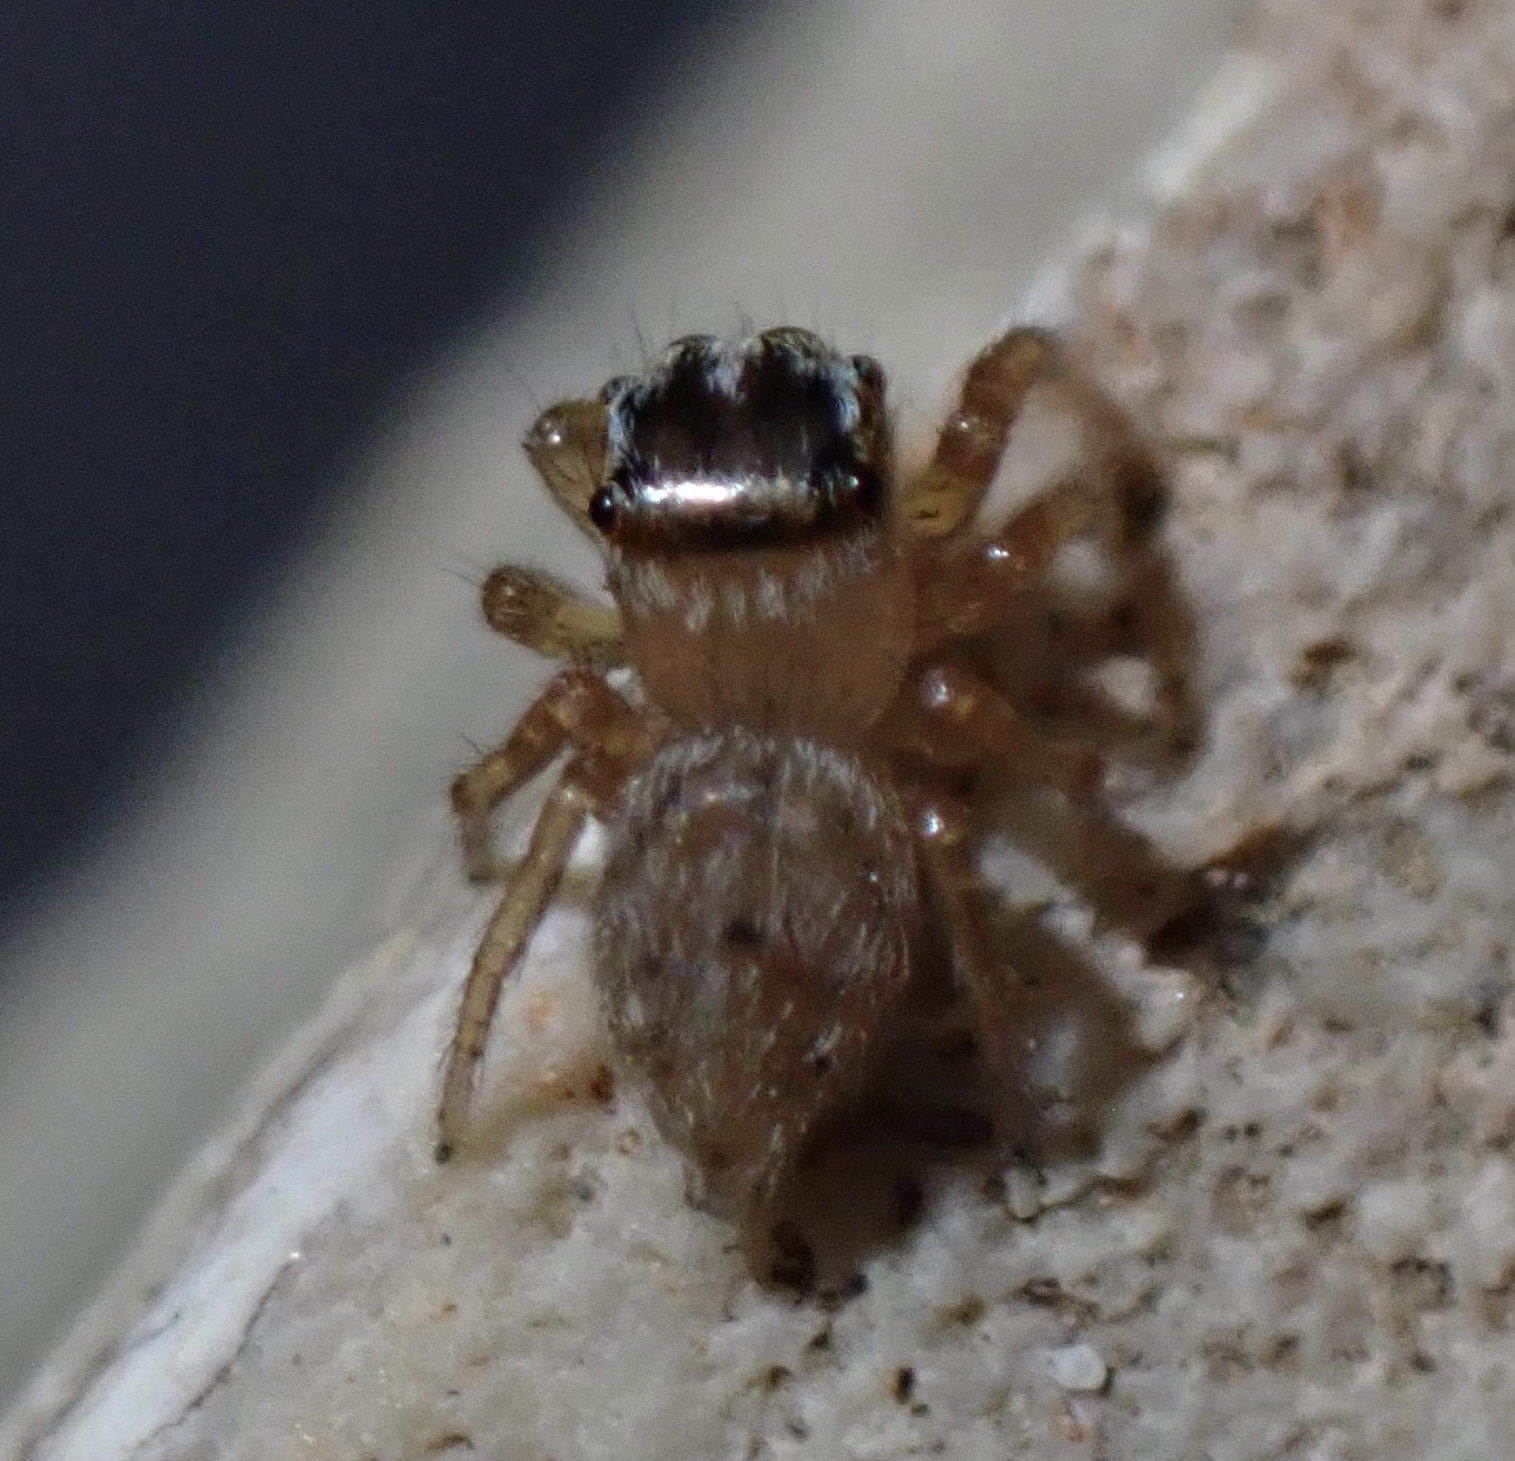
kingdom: Animalia
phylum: Arthropoda
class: Arachnida
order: Araneae
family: Salticidae
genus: Evarcha
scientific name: Evarcha jucunda
